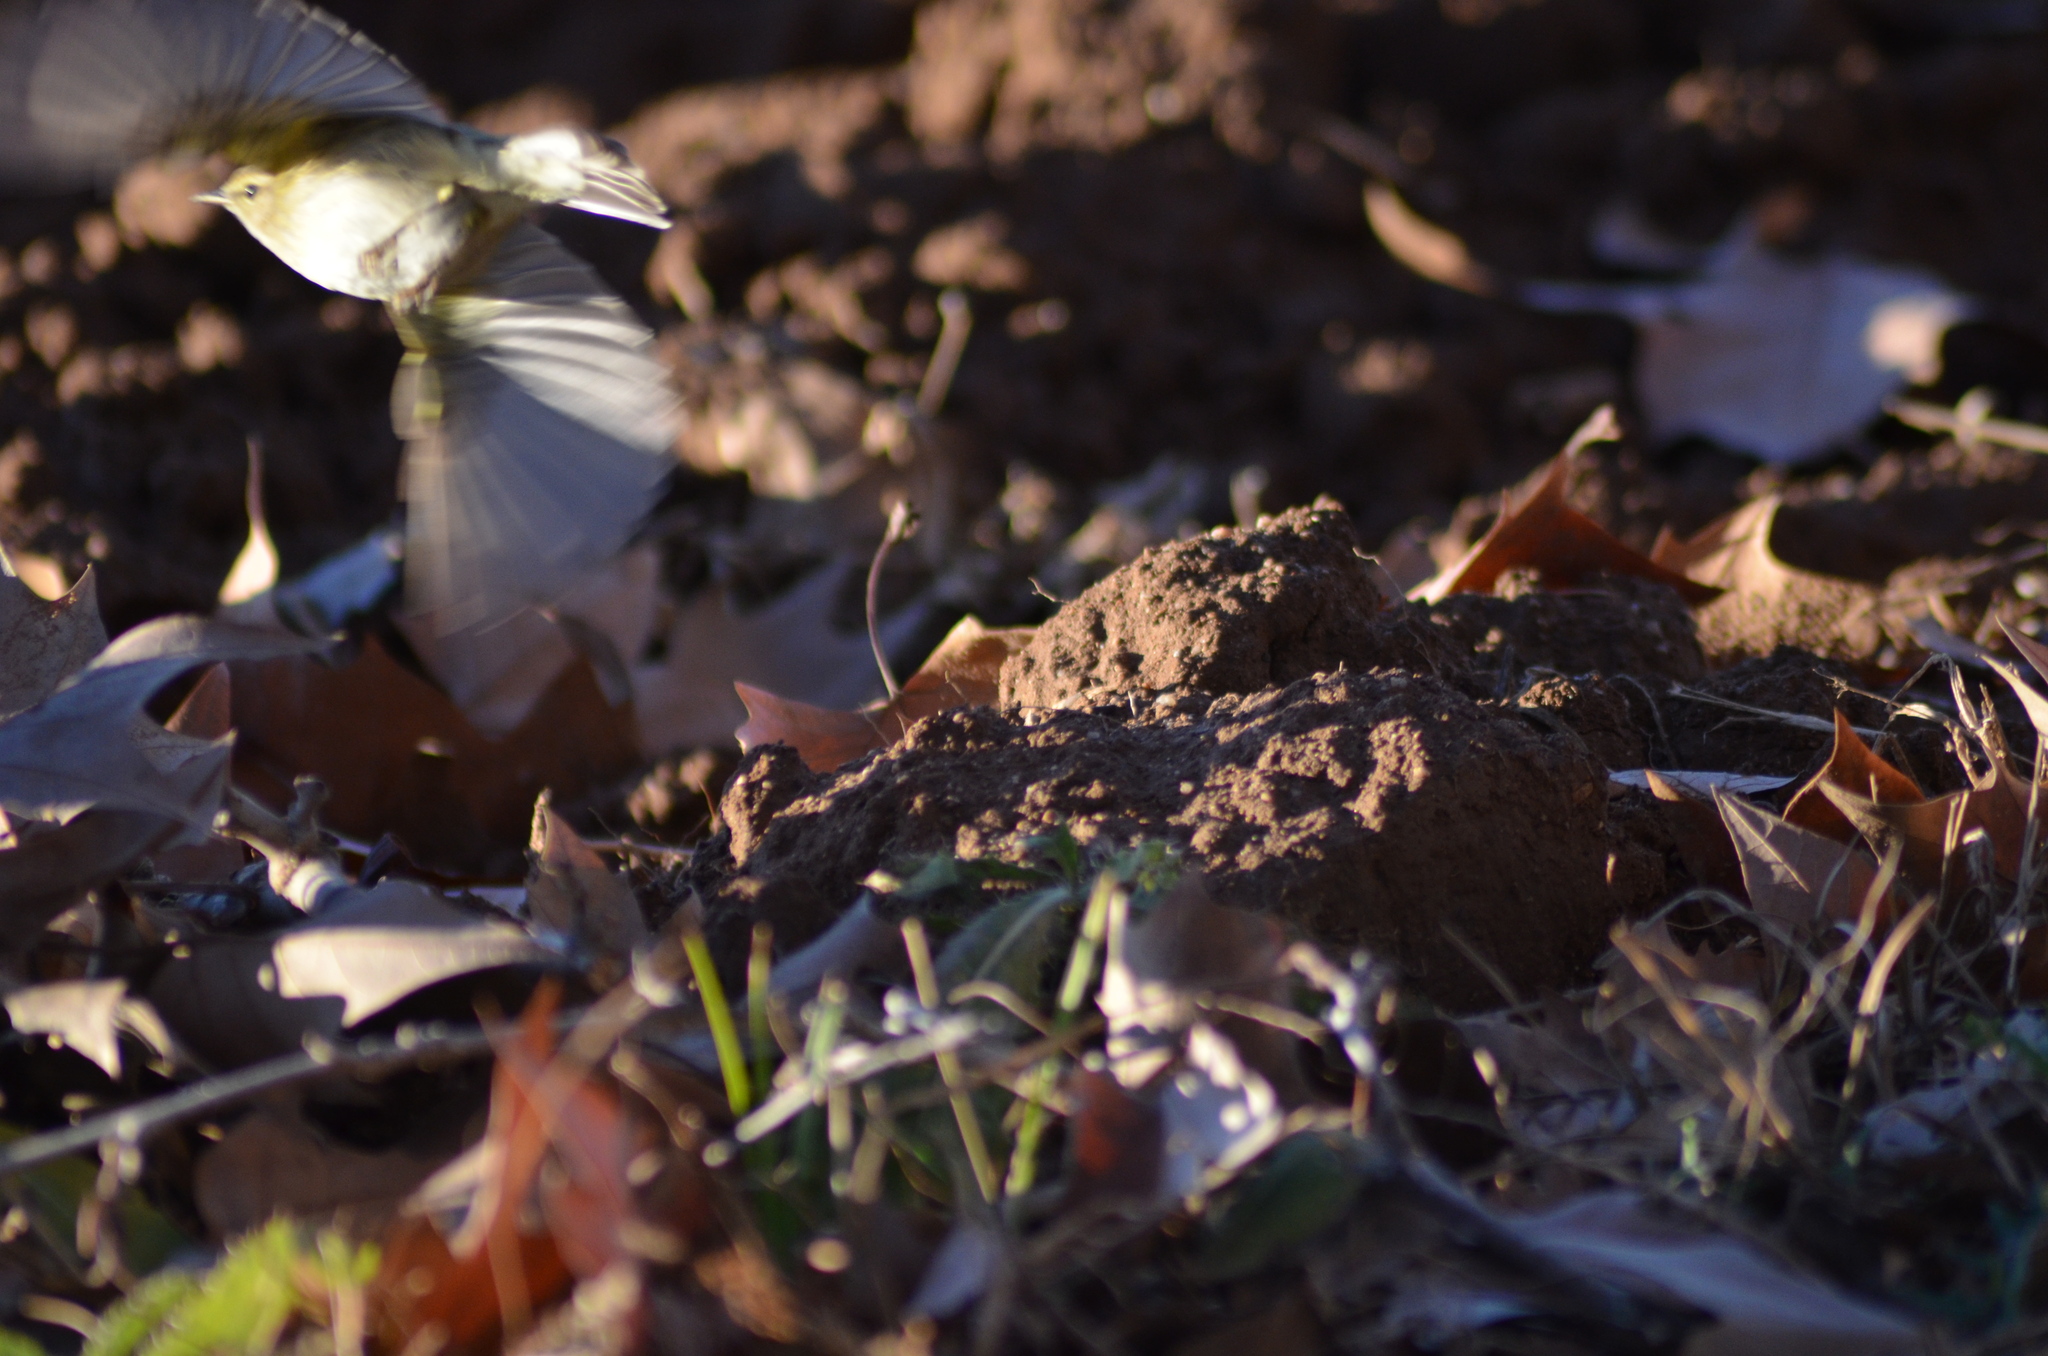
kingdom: Animalia
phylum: Chordata
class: Aves
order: Passeriformes
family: Phylloscopidae
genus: Phylloscopus
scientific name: Phylloscopus collybita
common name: Common chiffchaff
